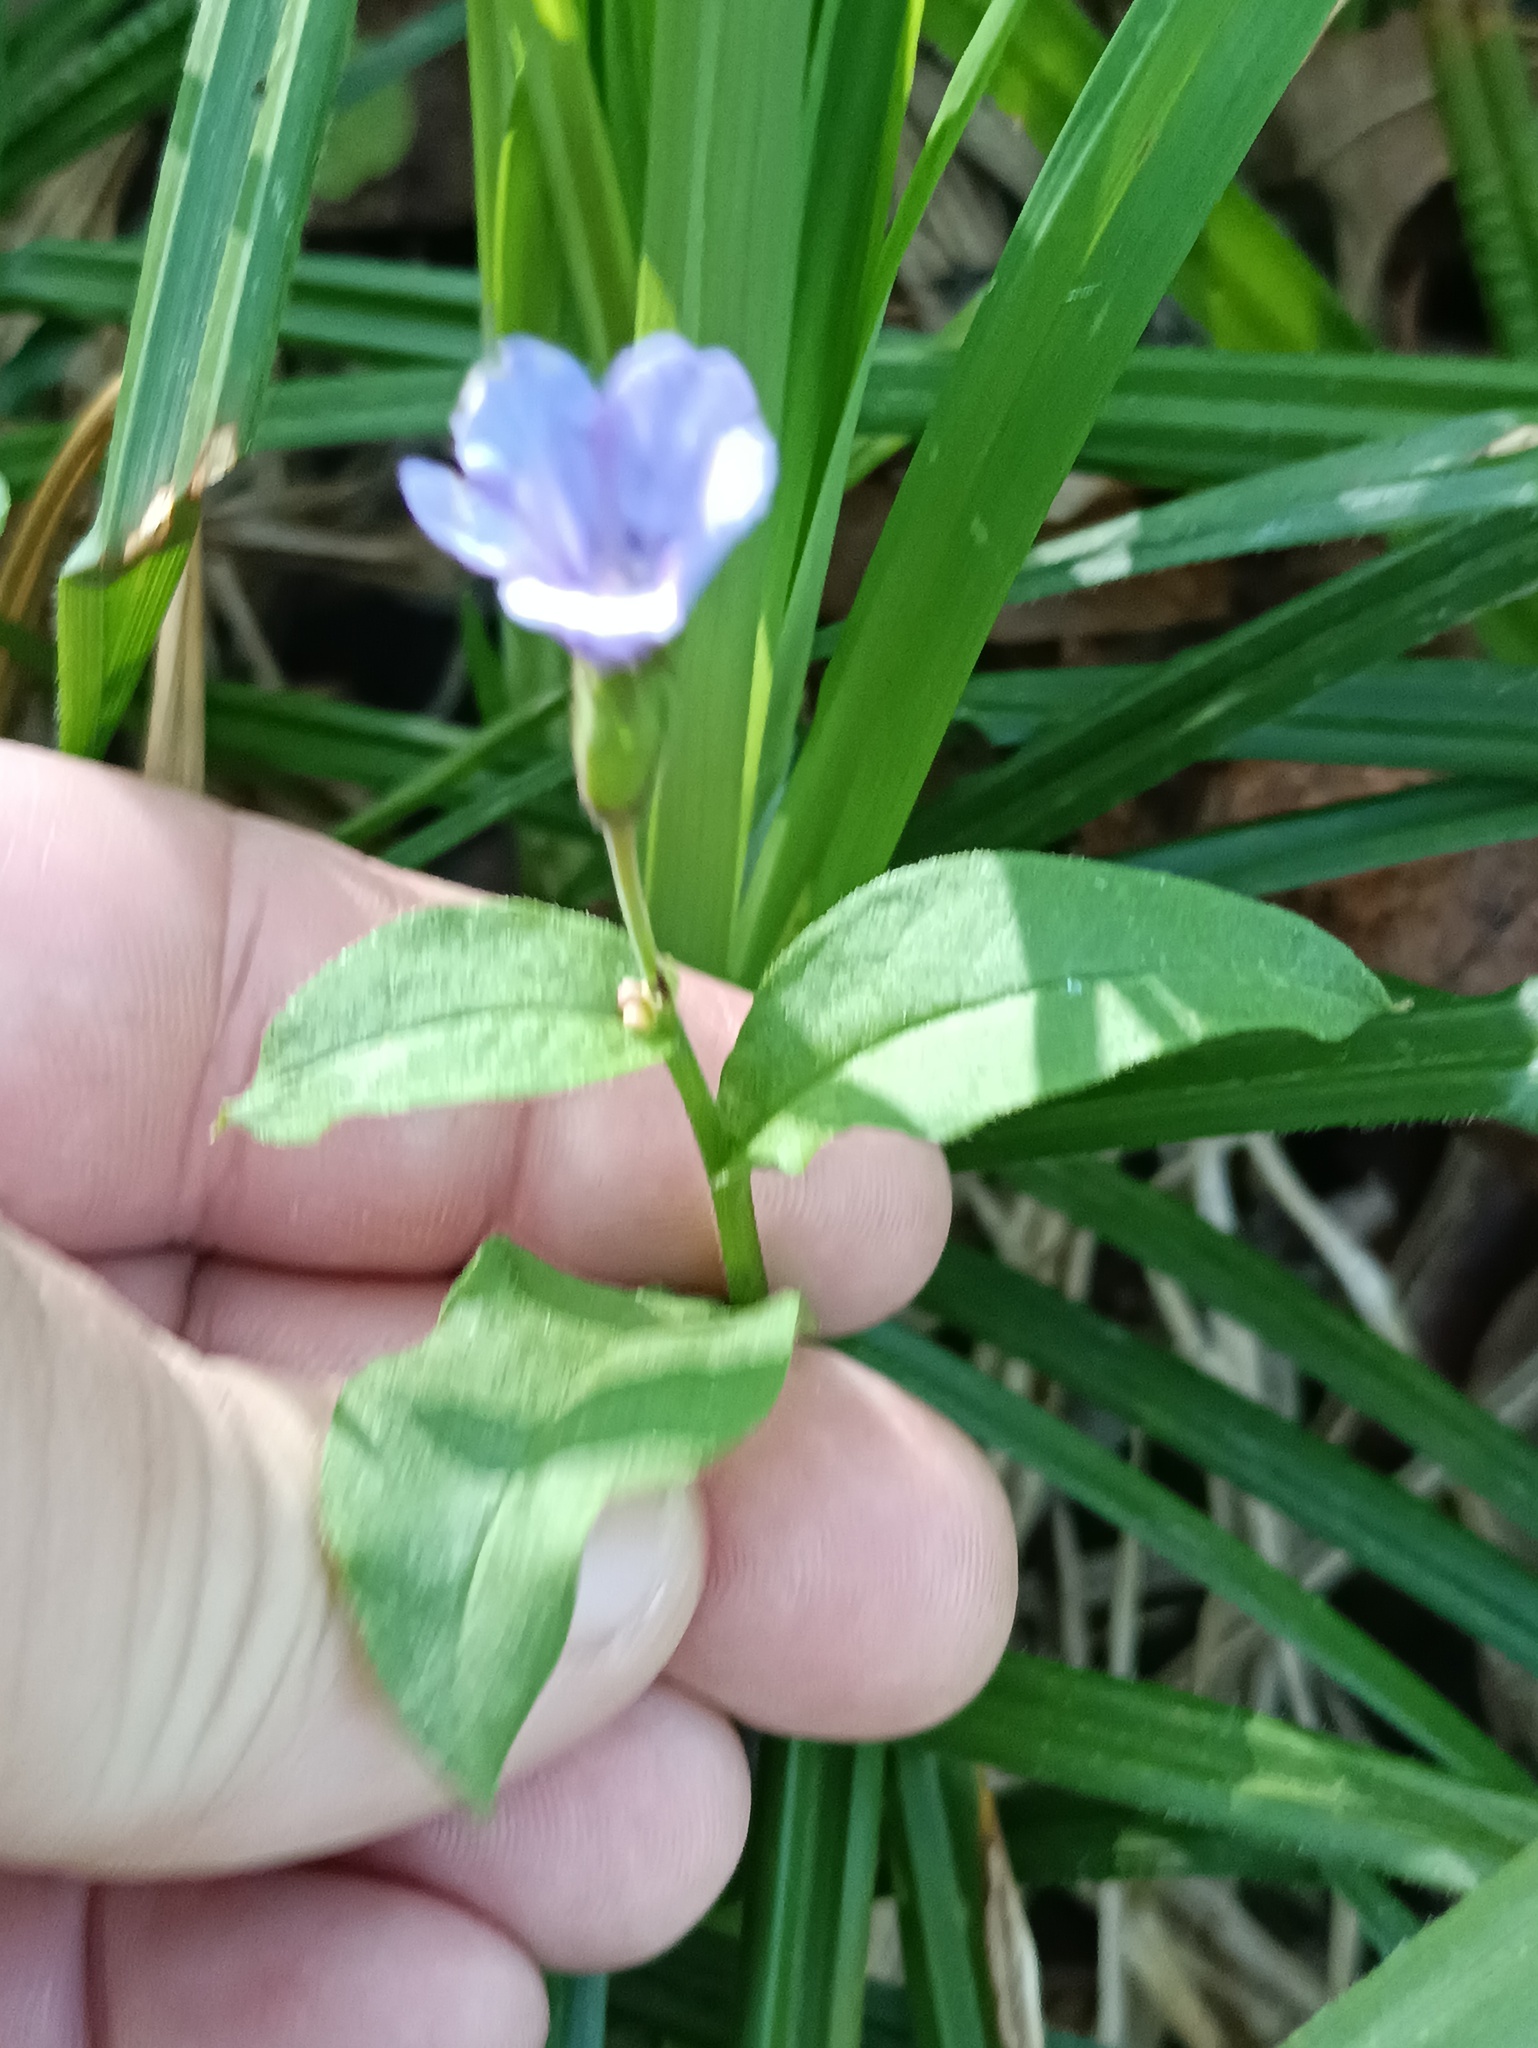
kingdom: Plantae
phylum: Tracheophyta
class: Magnoliopsida
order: Boraginales
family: Boraginaceae
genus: Pulmonaria
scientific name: Pulmonaria obscura
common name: Suffolk lungwort
